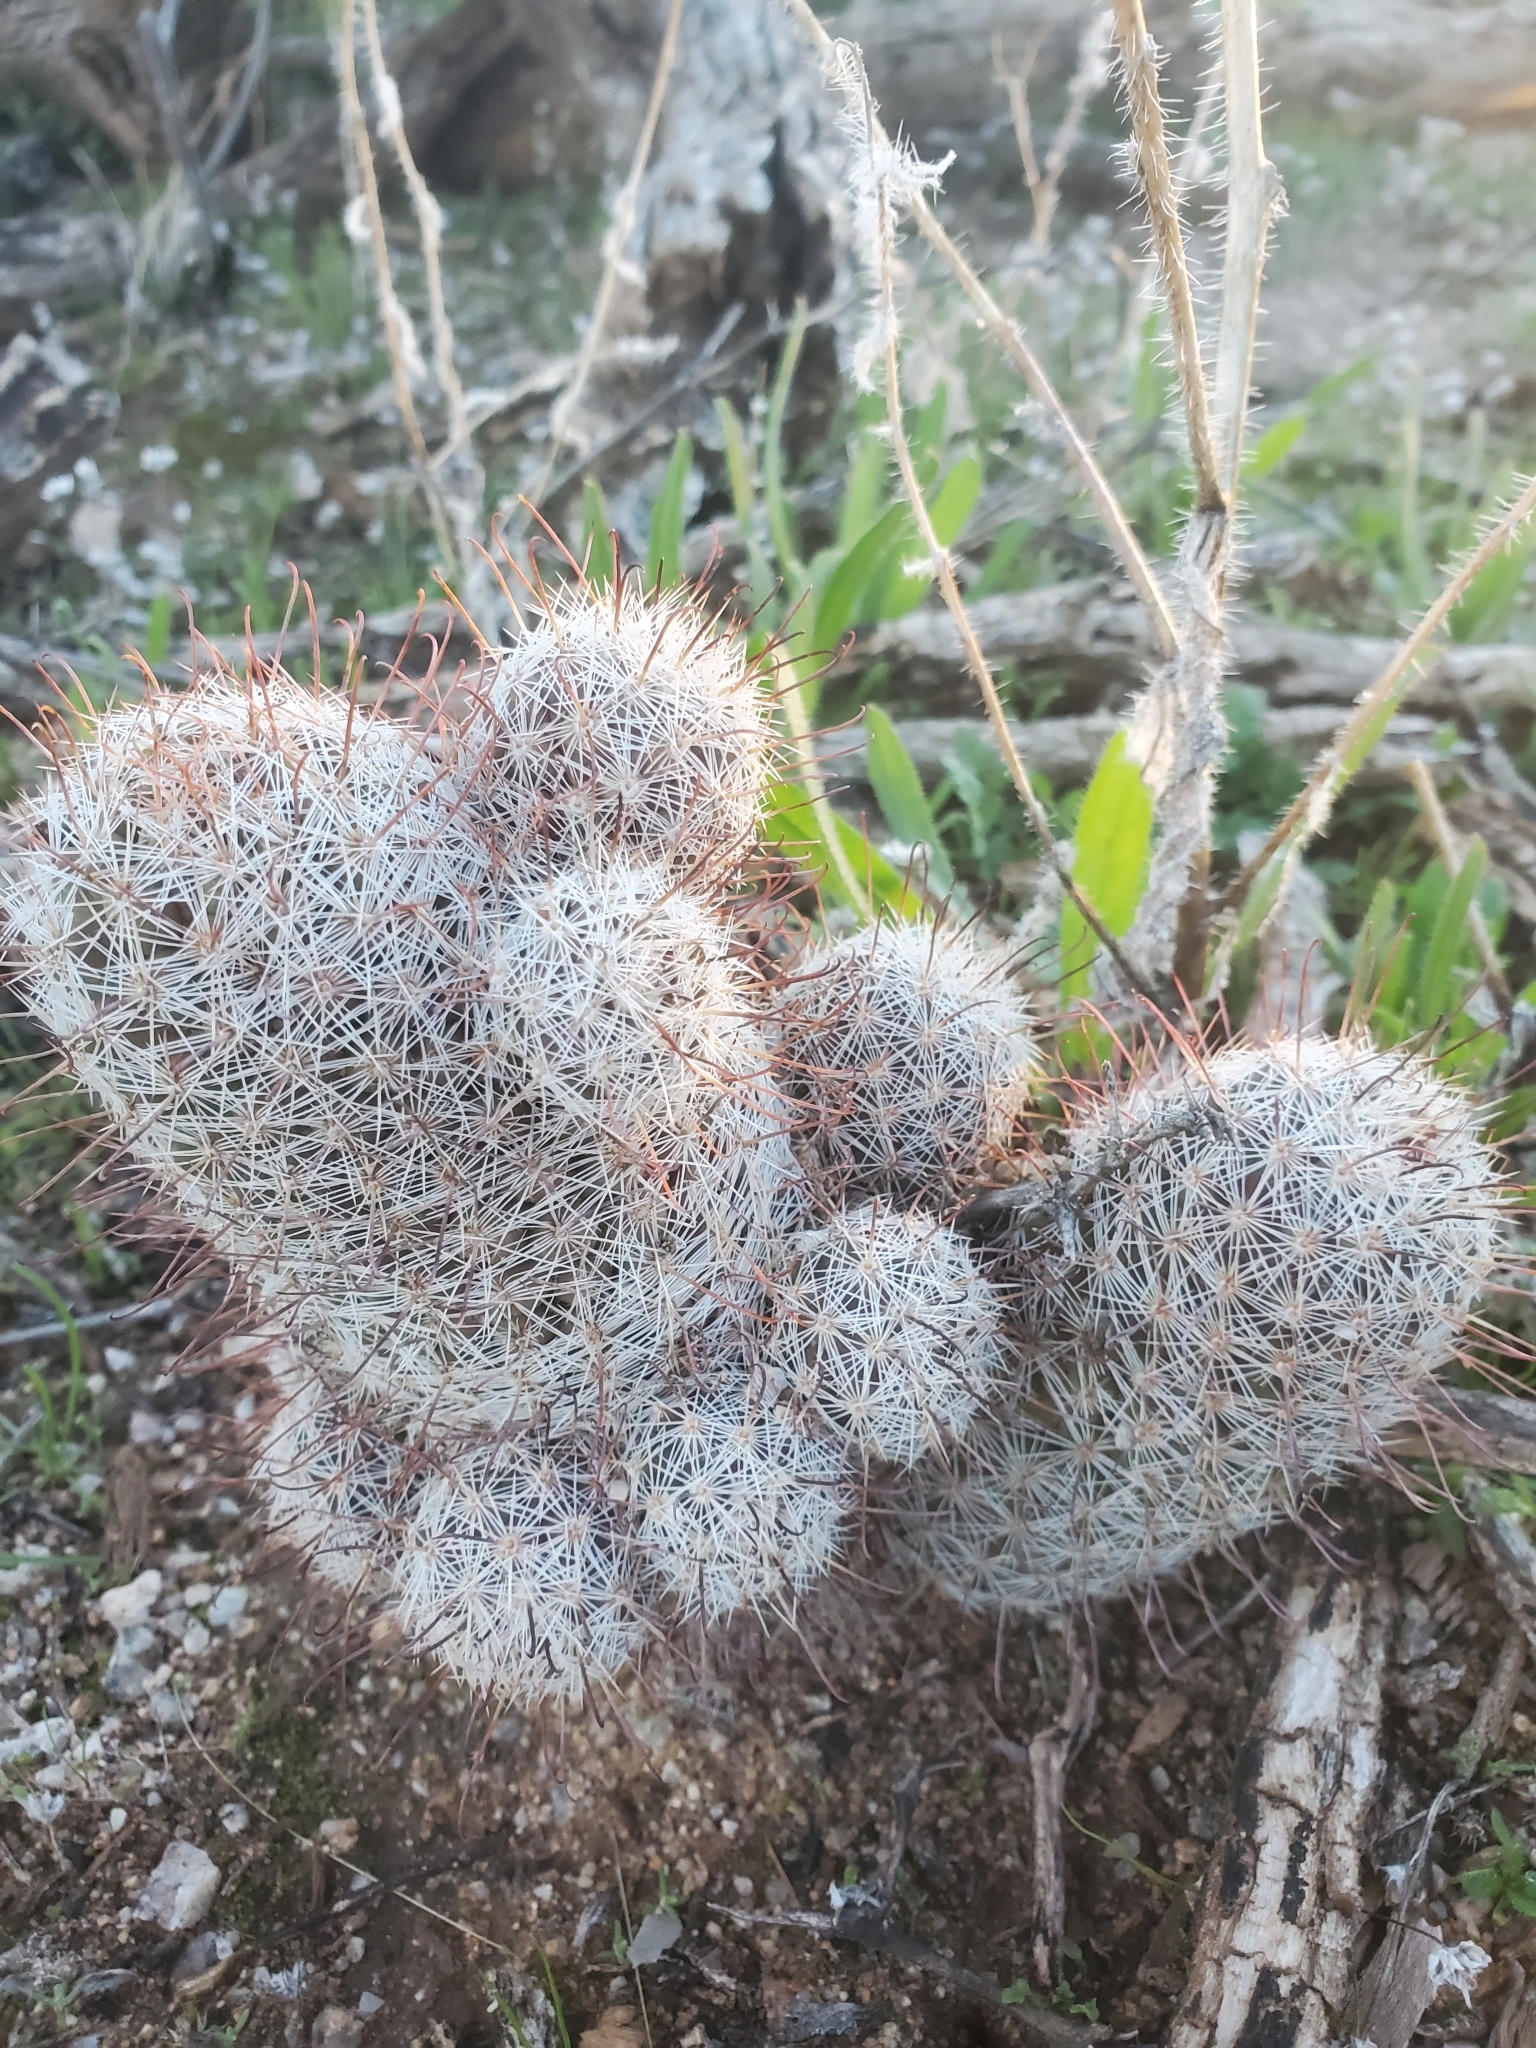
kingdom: Plantae
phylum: Tracheophyta
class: Magnoliopsida
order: Caryophyllales
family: Cactaceae
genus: Cochemiea
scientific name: Cochemiea grahamii
